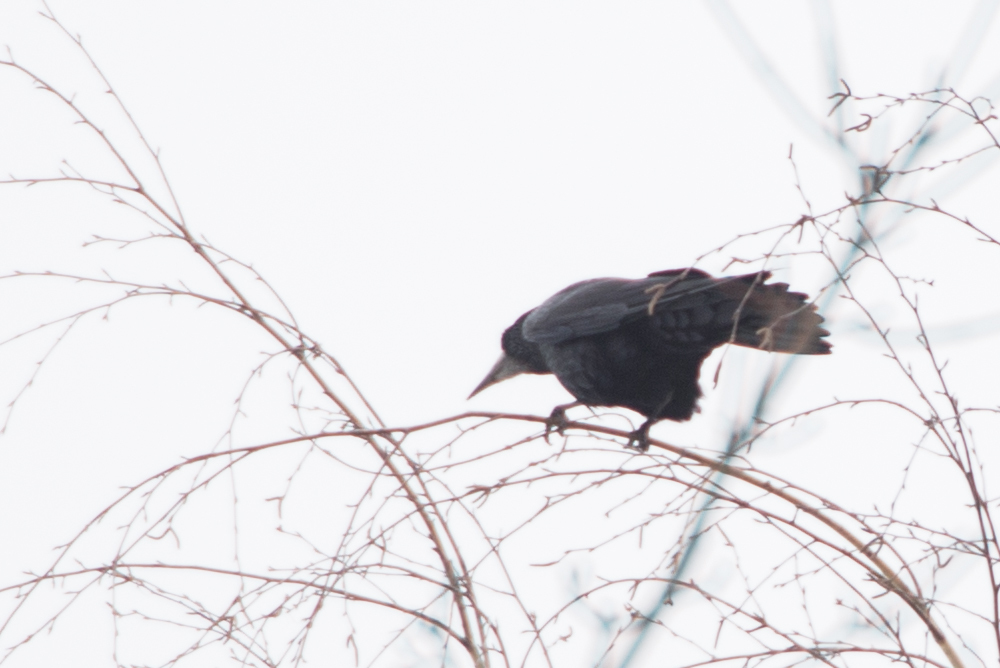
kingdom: Animalia
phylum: Chordata
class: Aves
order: Passeriformes
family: Corvidae
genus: Corvus
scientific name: Corvus frugilegus
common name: Rook
